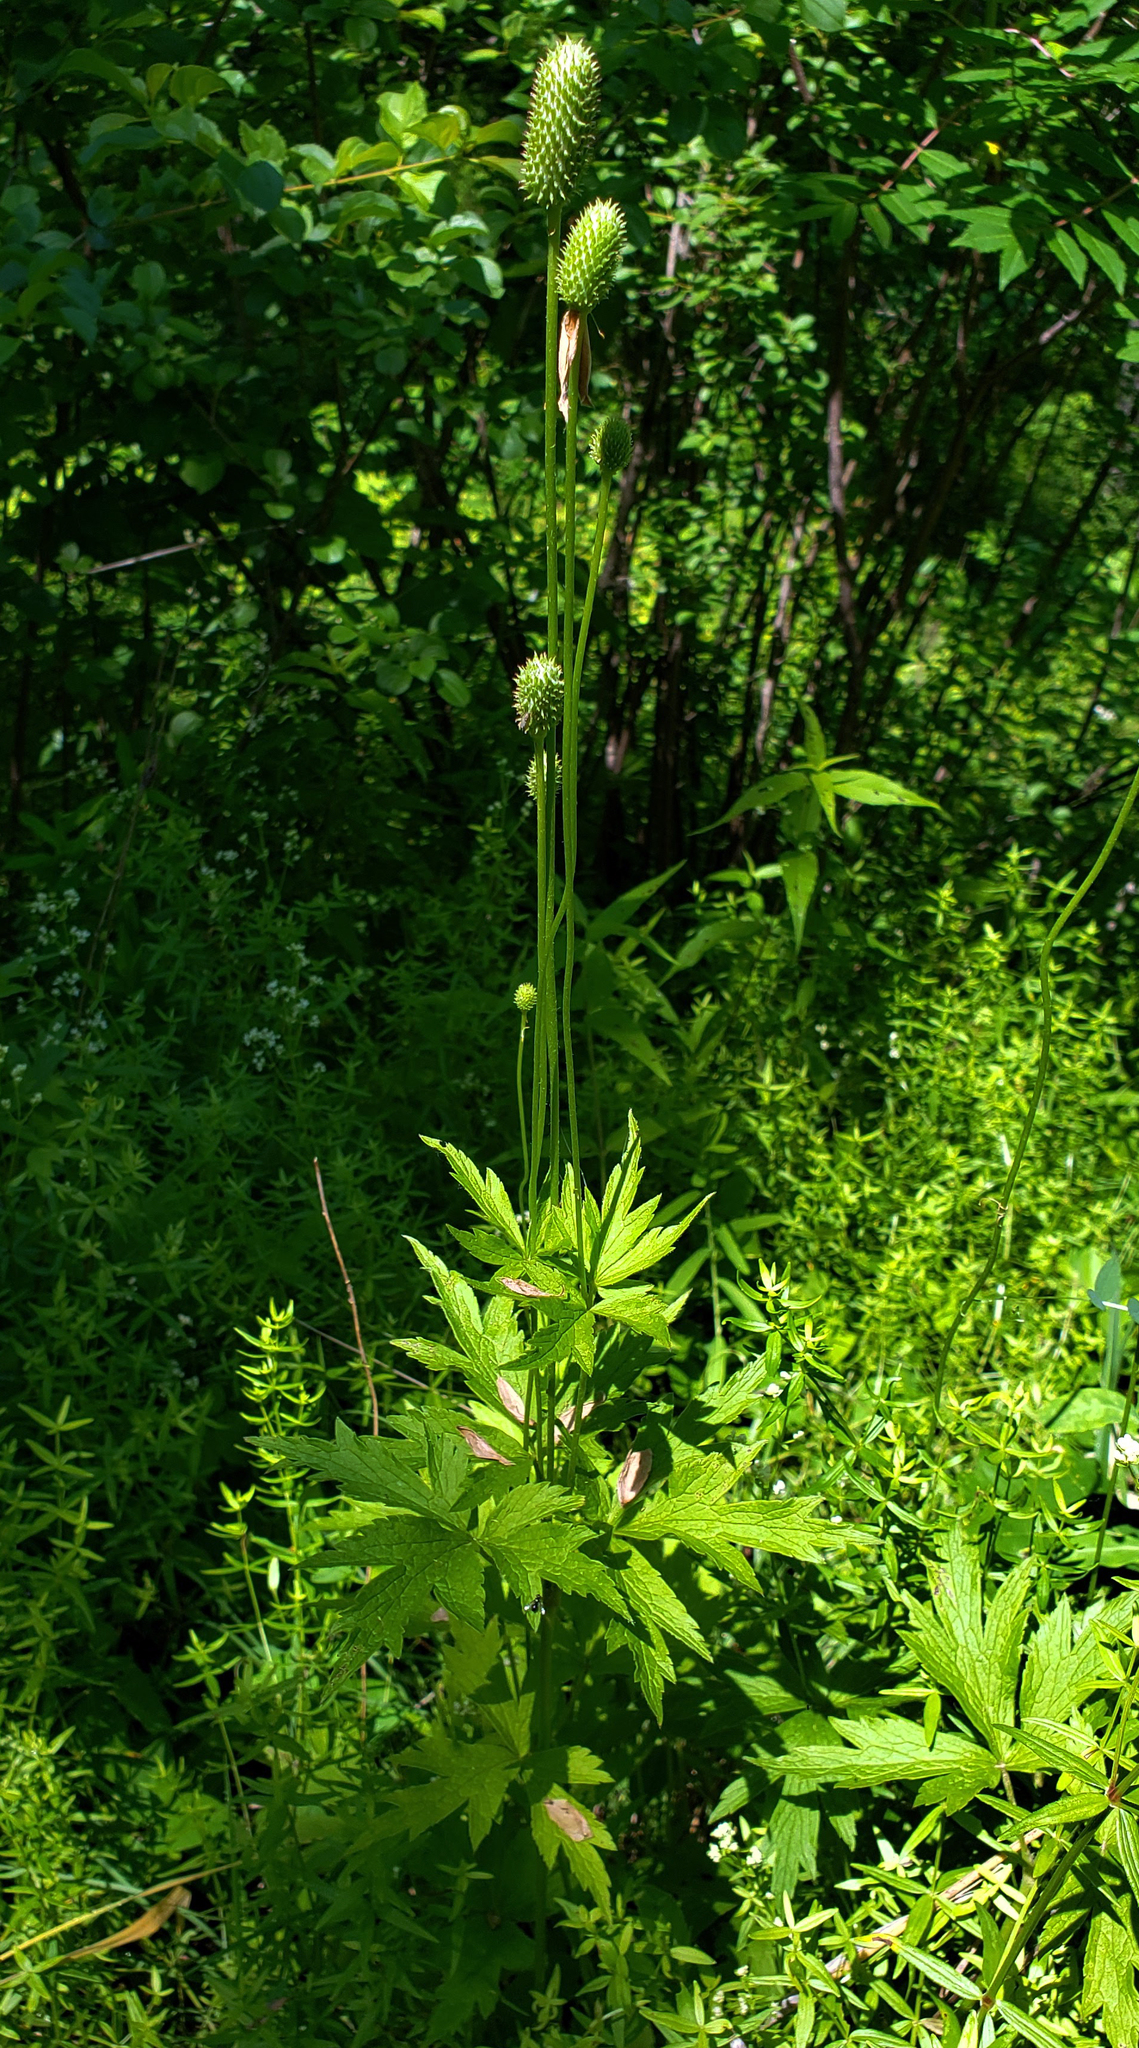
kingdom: Plantae
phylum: Tracheophyta
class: Magnoliopsida
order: Ranunculales
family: Ranunculaceae
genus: Anemone
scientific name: Anemone virginiana
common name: Tall anemone
